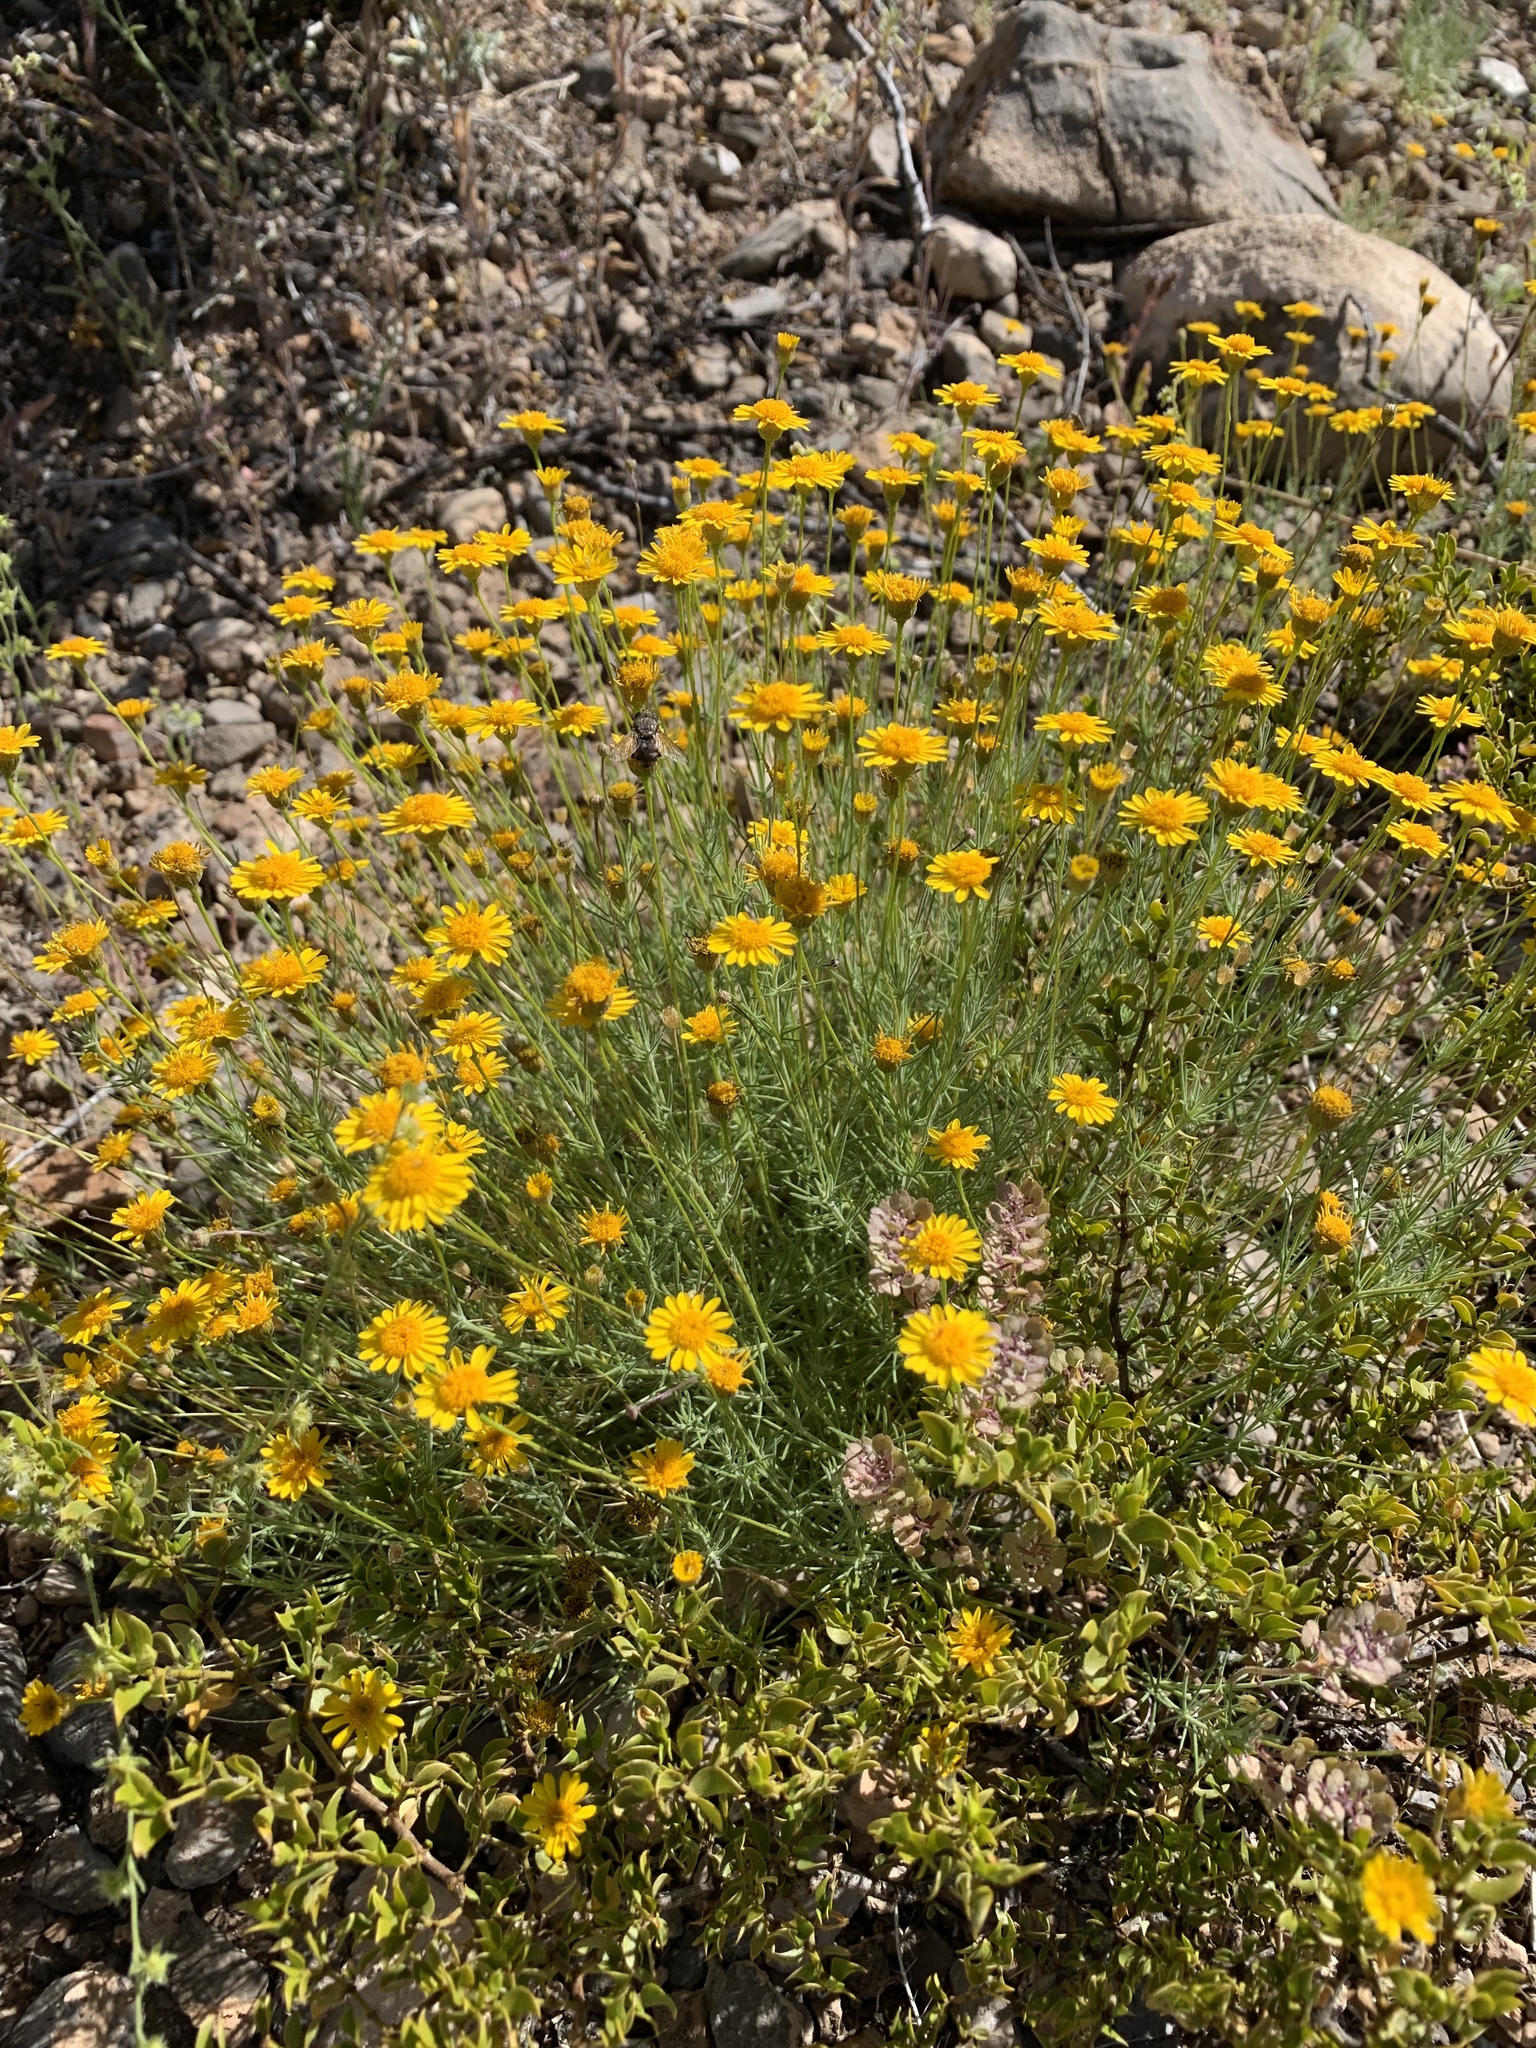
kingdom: Plantae
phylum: Tracheophyta
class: Magnoliopsida
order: Asterales
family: Asteraceae
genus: Thymophylla
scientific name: Thymophylla pentachaeta
